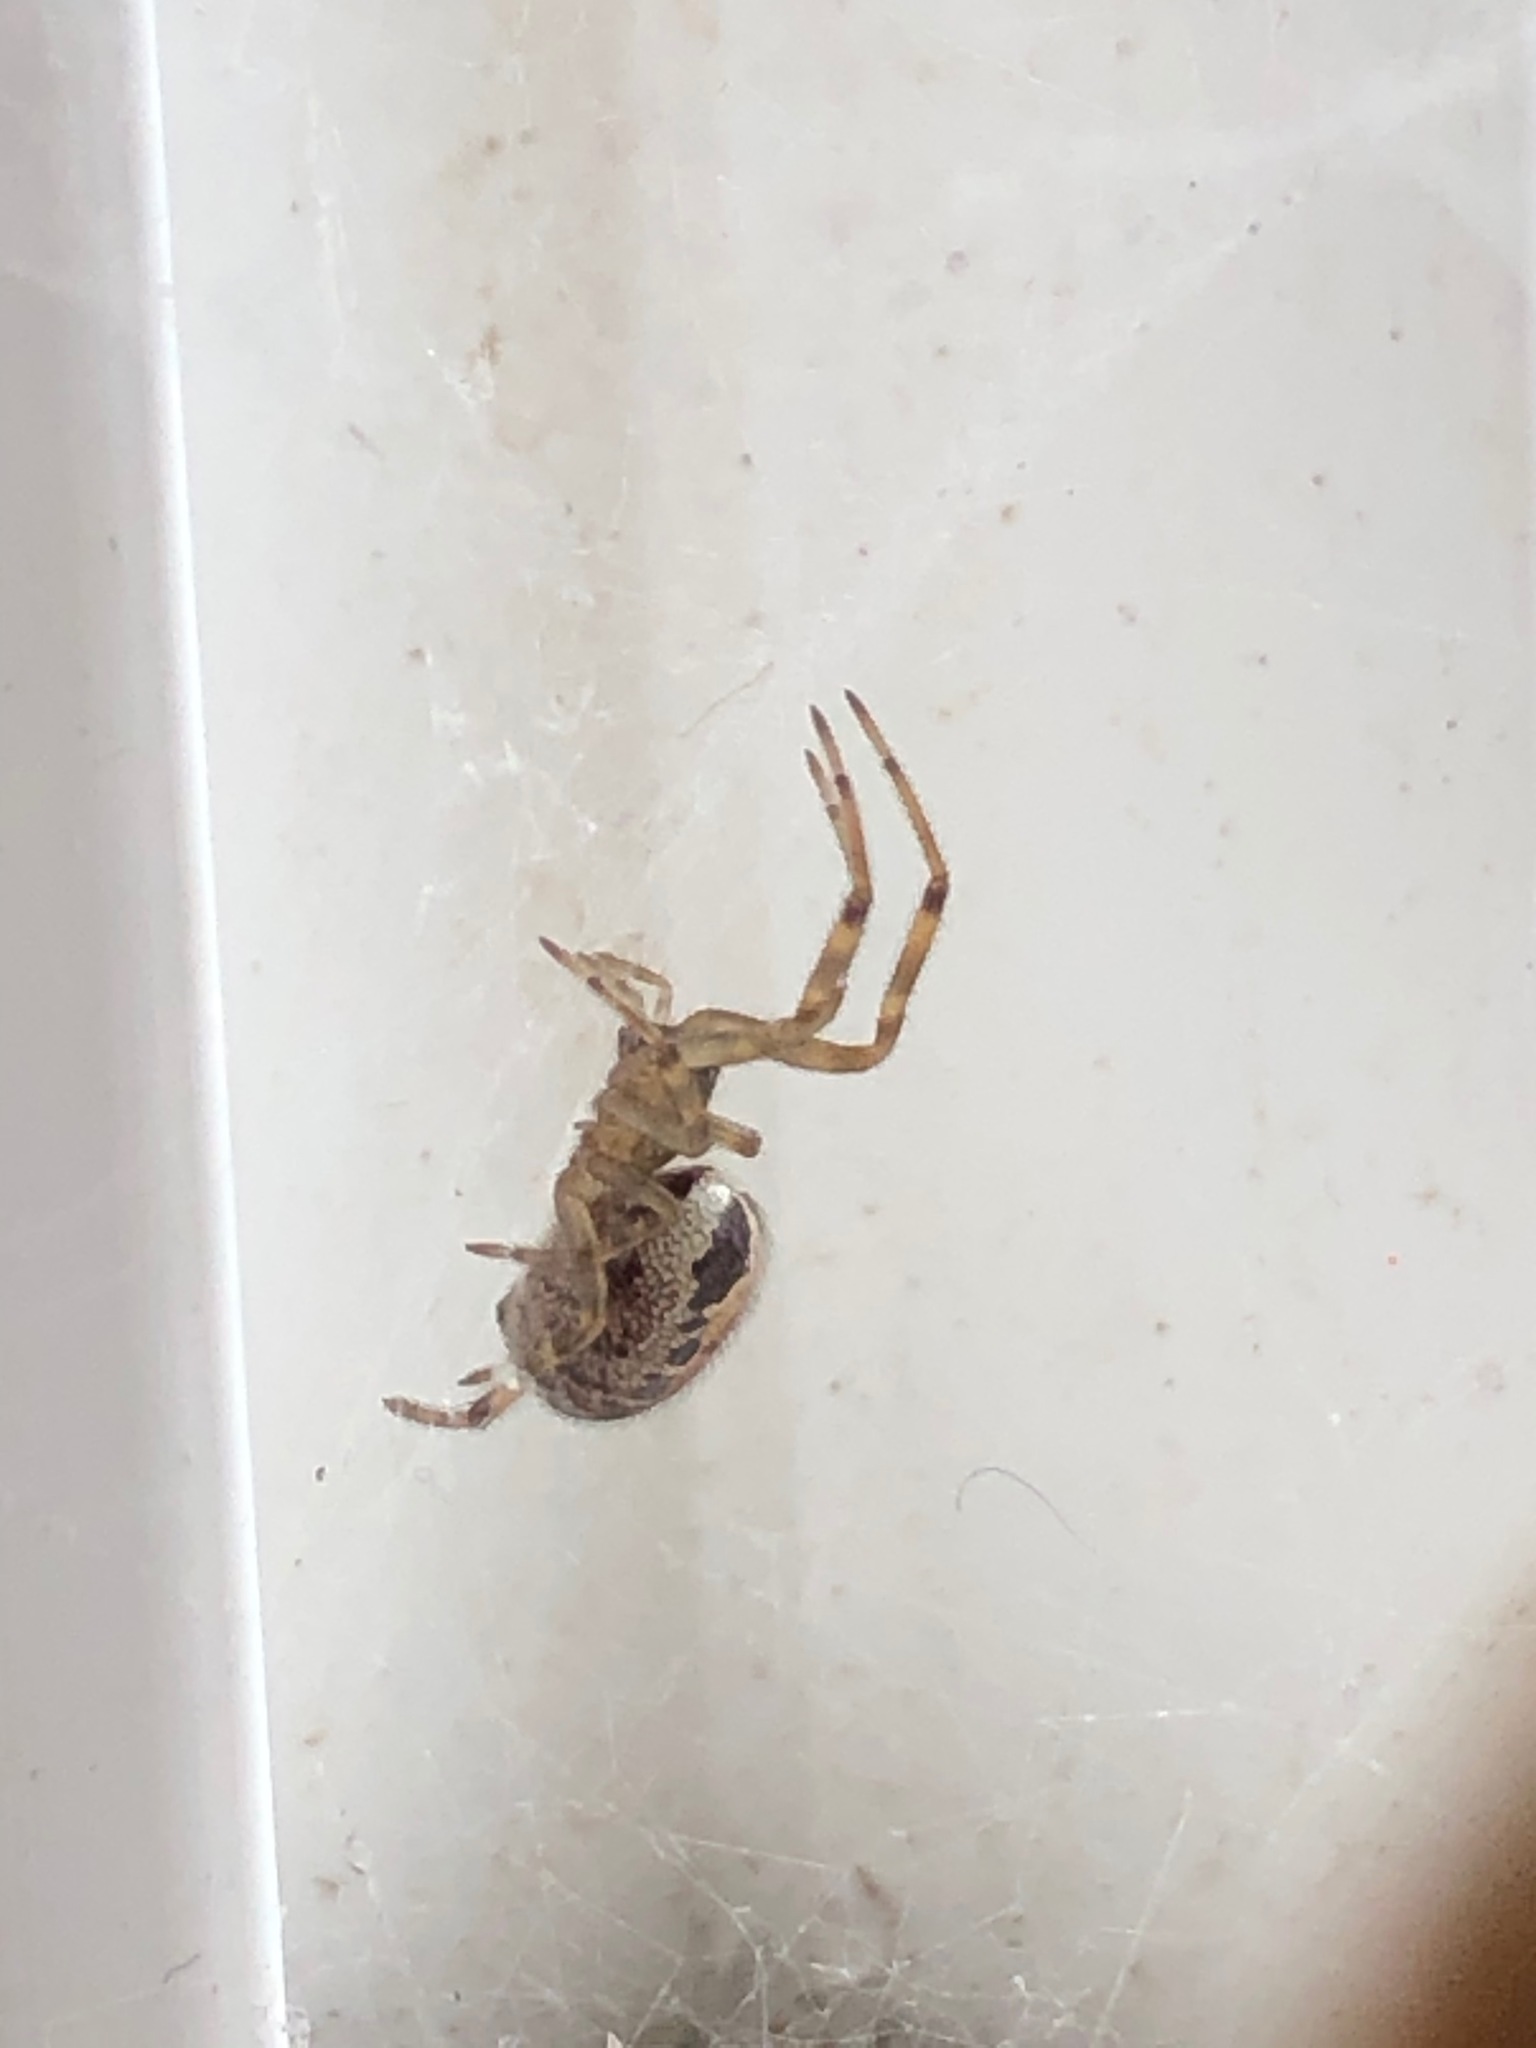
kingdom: Animalia
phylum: Arthropoda
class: Arachnida
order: Araneae
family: Theridiidae
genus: Steatoda
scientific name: Steatoda nobilis
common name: Cobweb weaver
